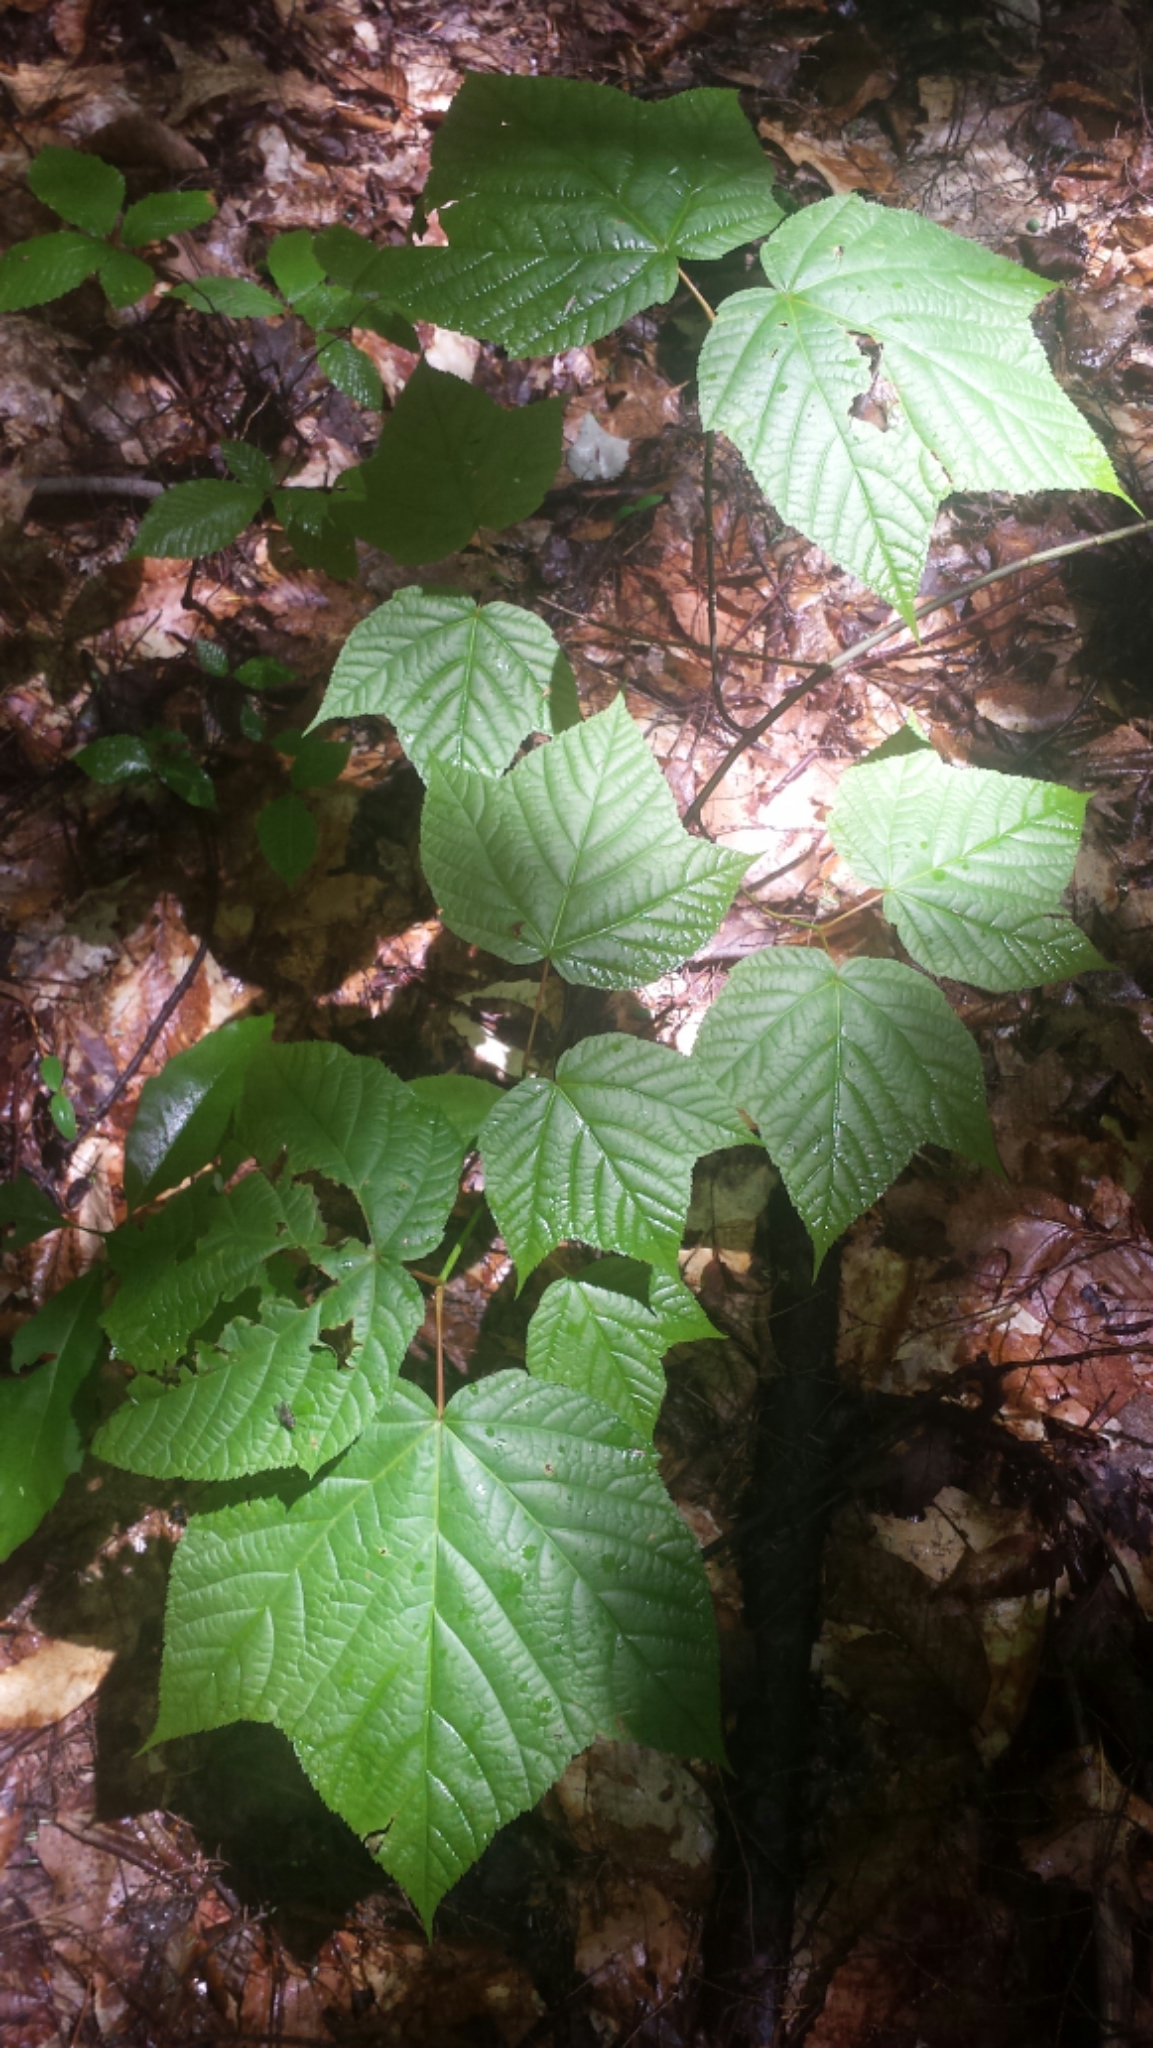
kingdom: Plantae
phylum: Tracheophyta
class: Magnoliopsida
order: Sapindales
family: Sapindaceae
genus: Acer
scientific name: Acer pensylvanicum
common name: Moosewood
